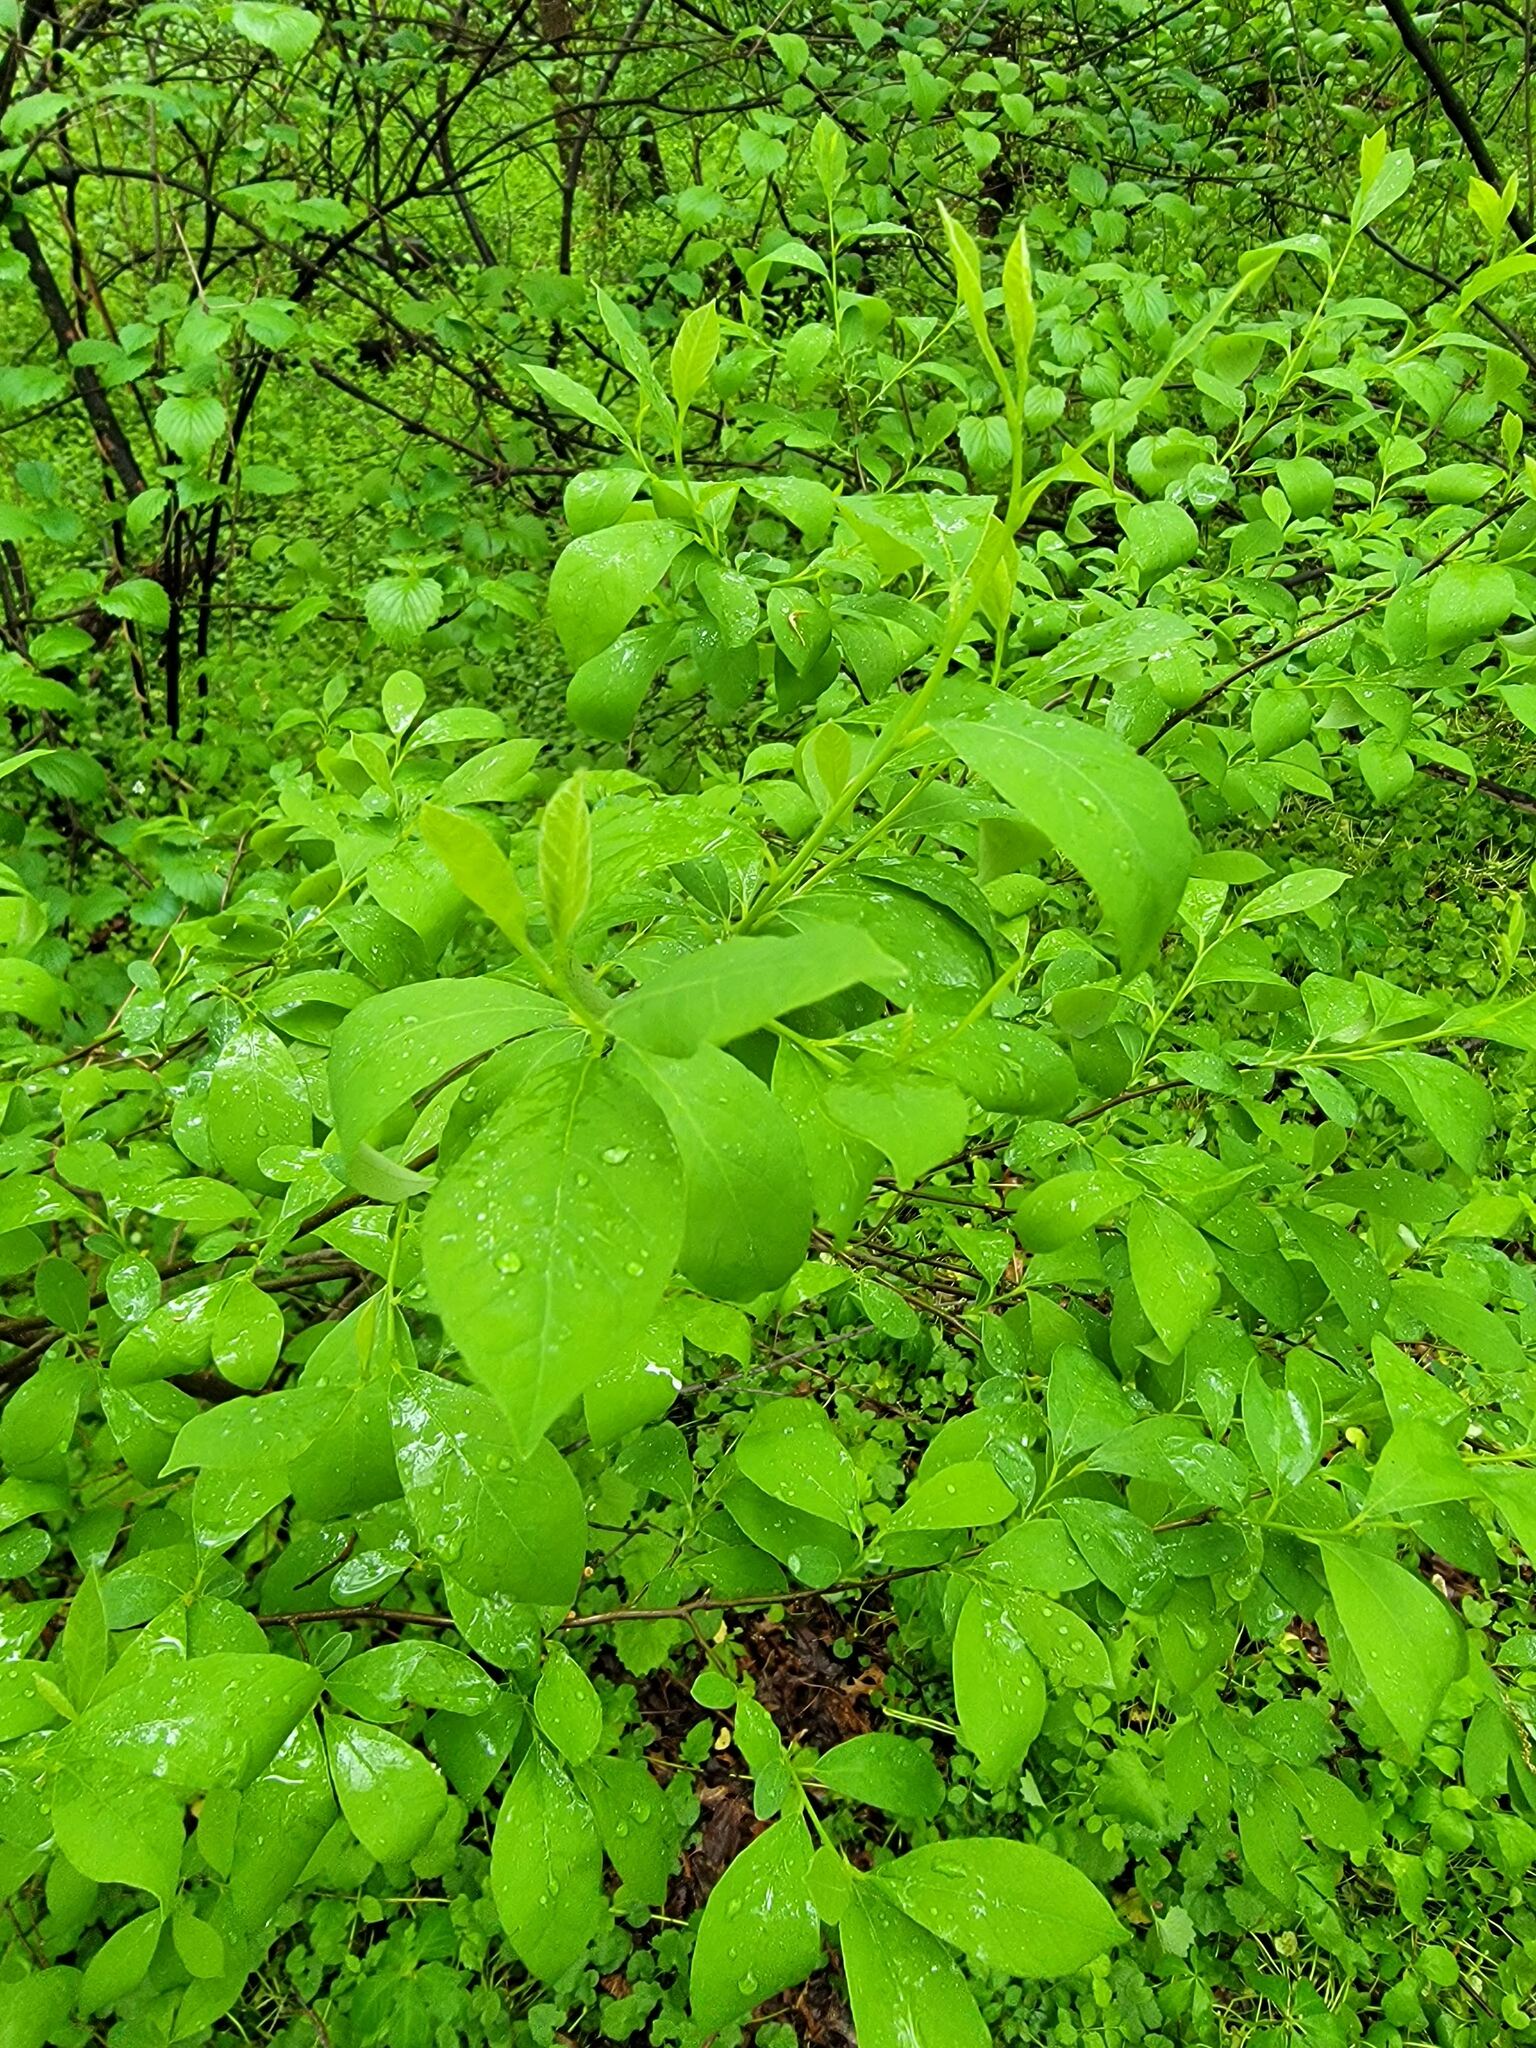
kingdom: Plantae
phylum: Tracheophyta
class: Magnoliopsida
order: Laurales
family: Lauraceae
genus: Lindera
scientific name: Lindera benzoin
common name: Spicebush
